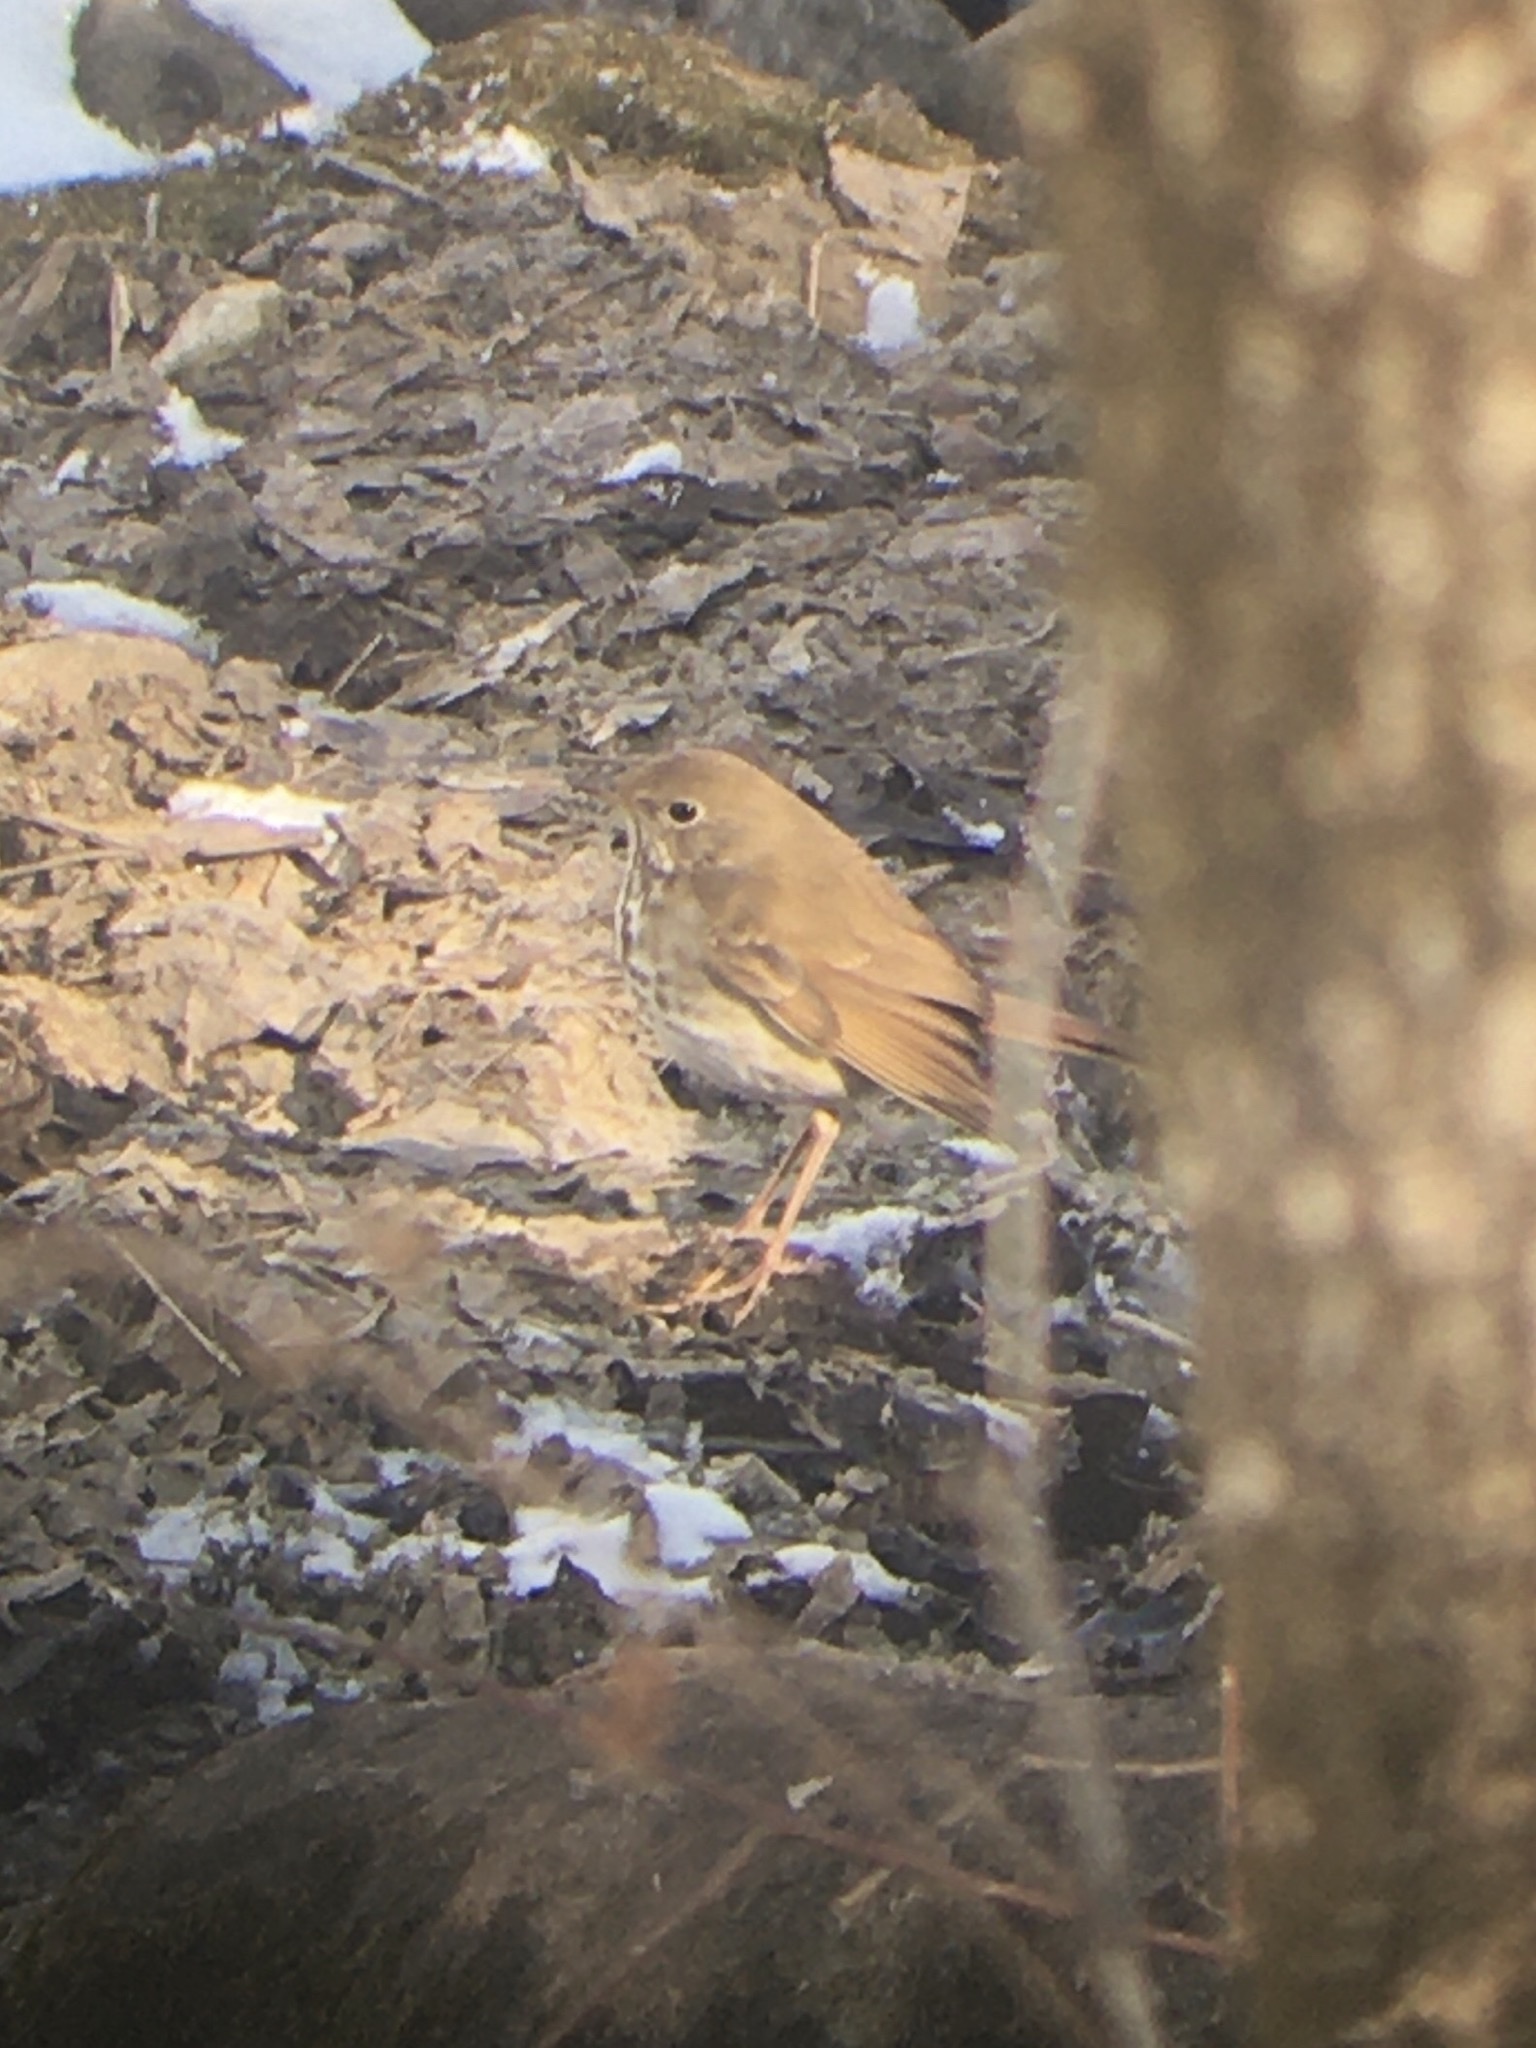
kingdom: Animalia
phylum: Chordata
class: Aves
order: Passeriformes
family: Turdidae
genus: Catharus
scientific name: Catharus guttatus
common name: Hermit thrush
